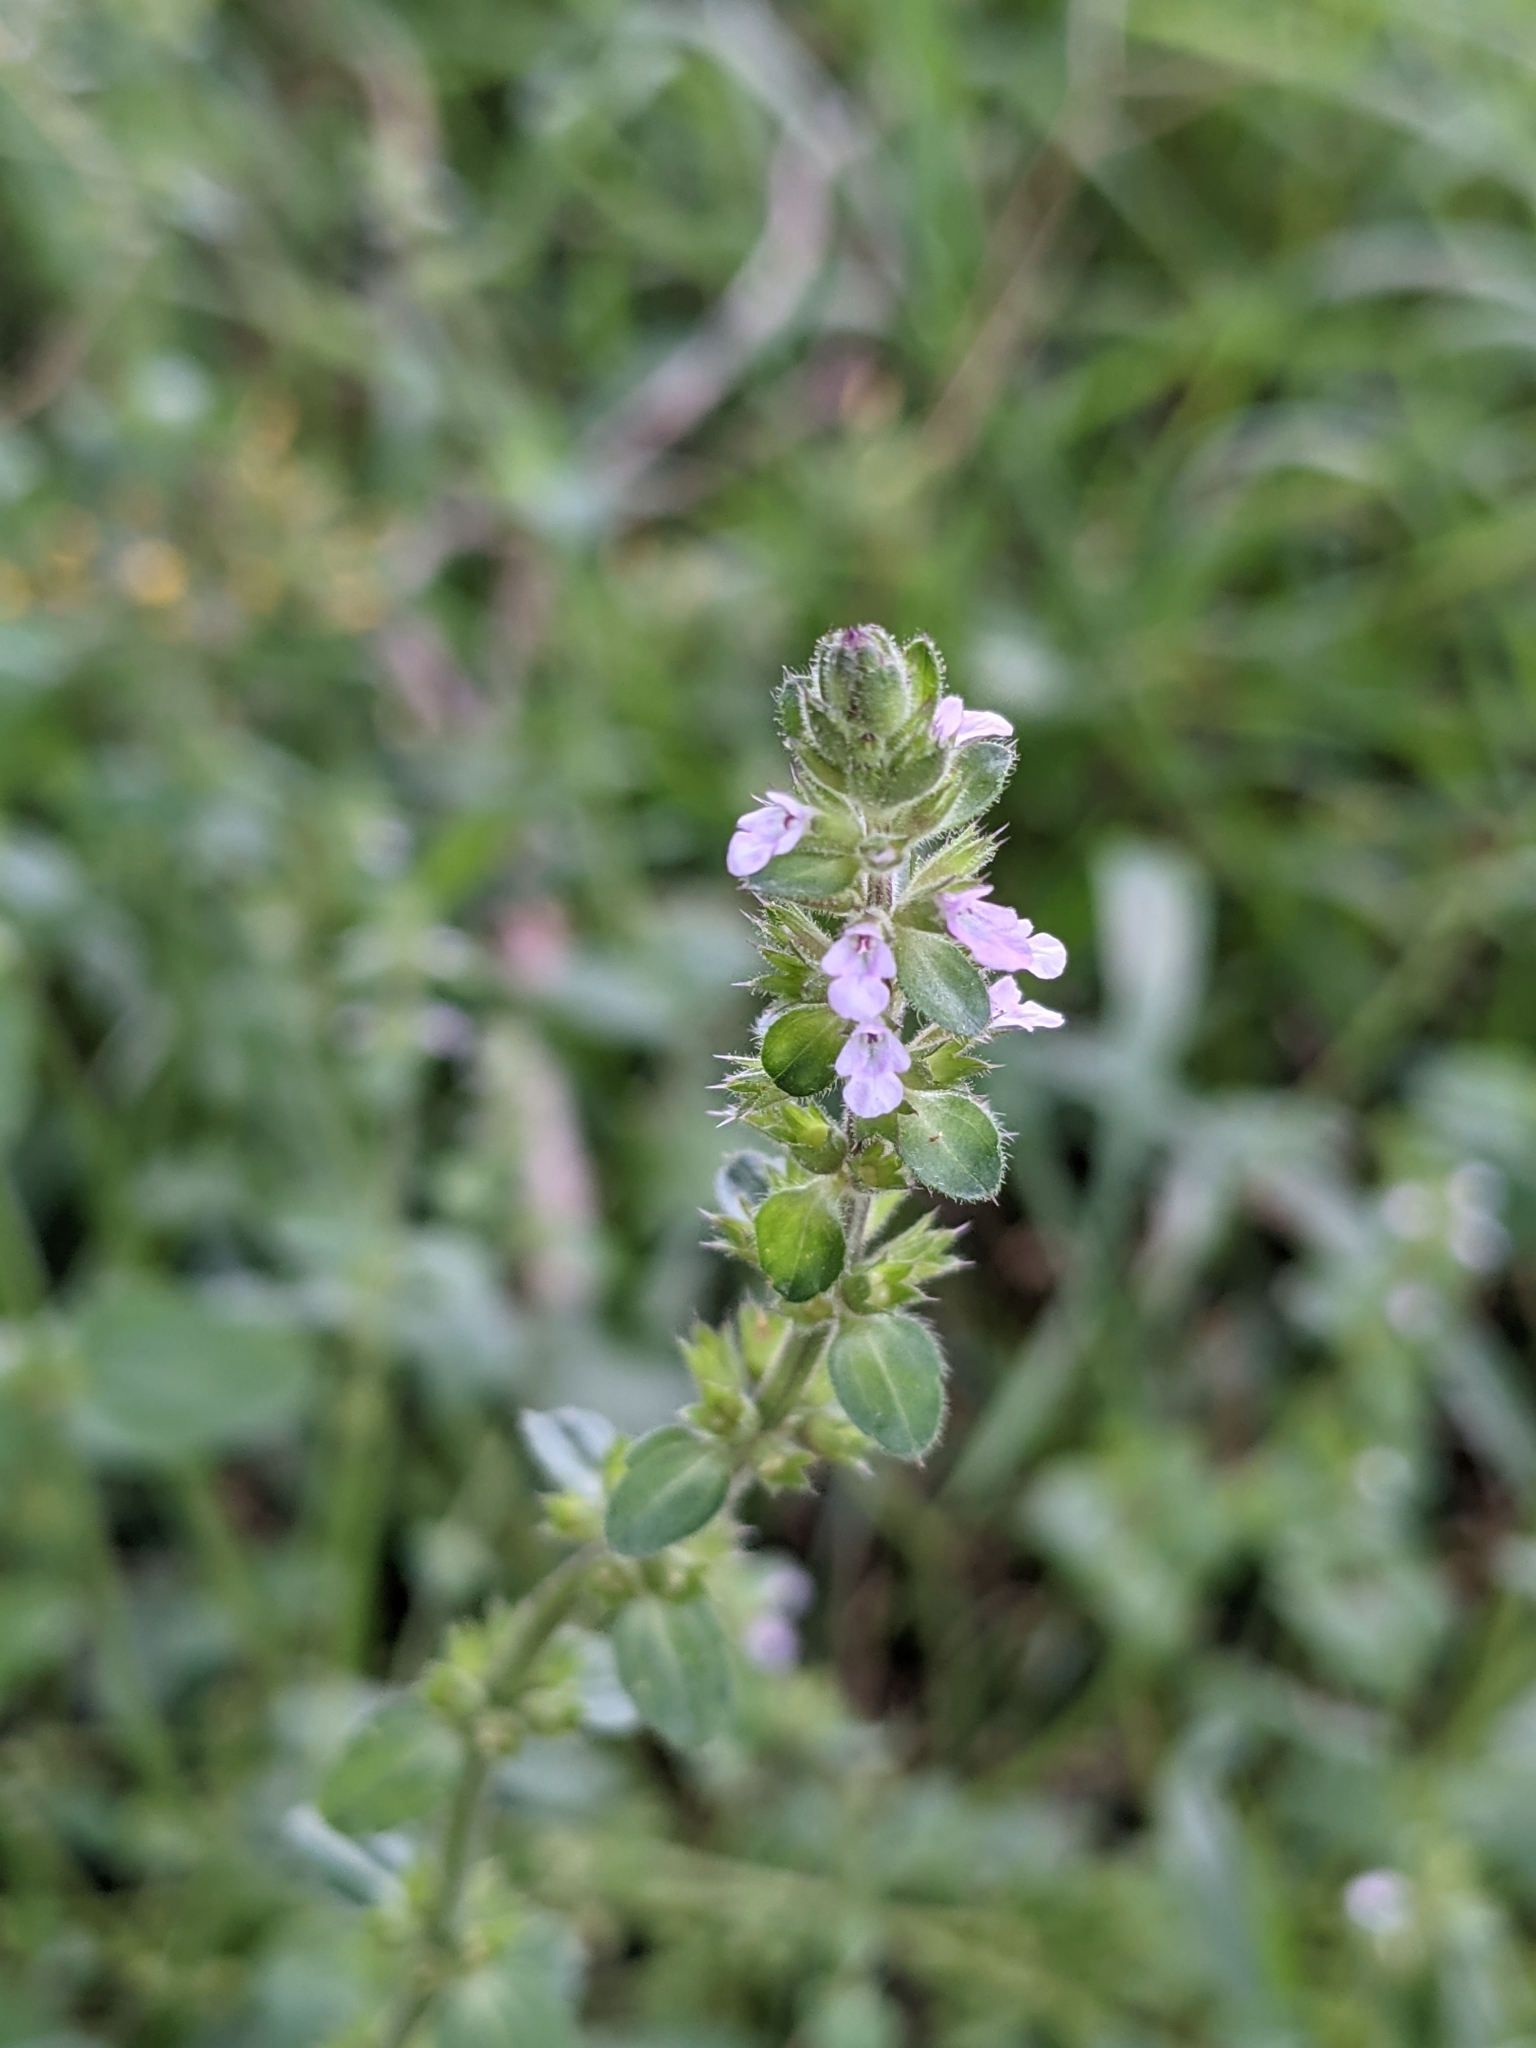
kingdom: Plantae
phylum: Tracheophyta
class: Magnoliopsida
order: Lamiales
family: Lamiaceae
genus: Stachys
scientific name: Stachys
